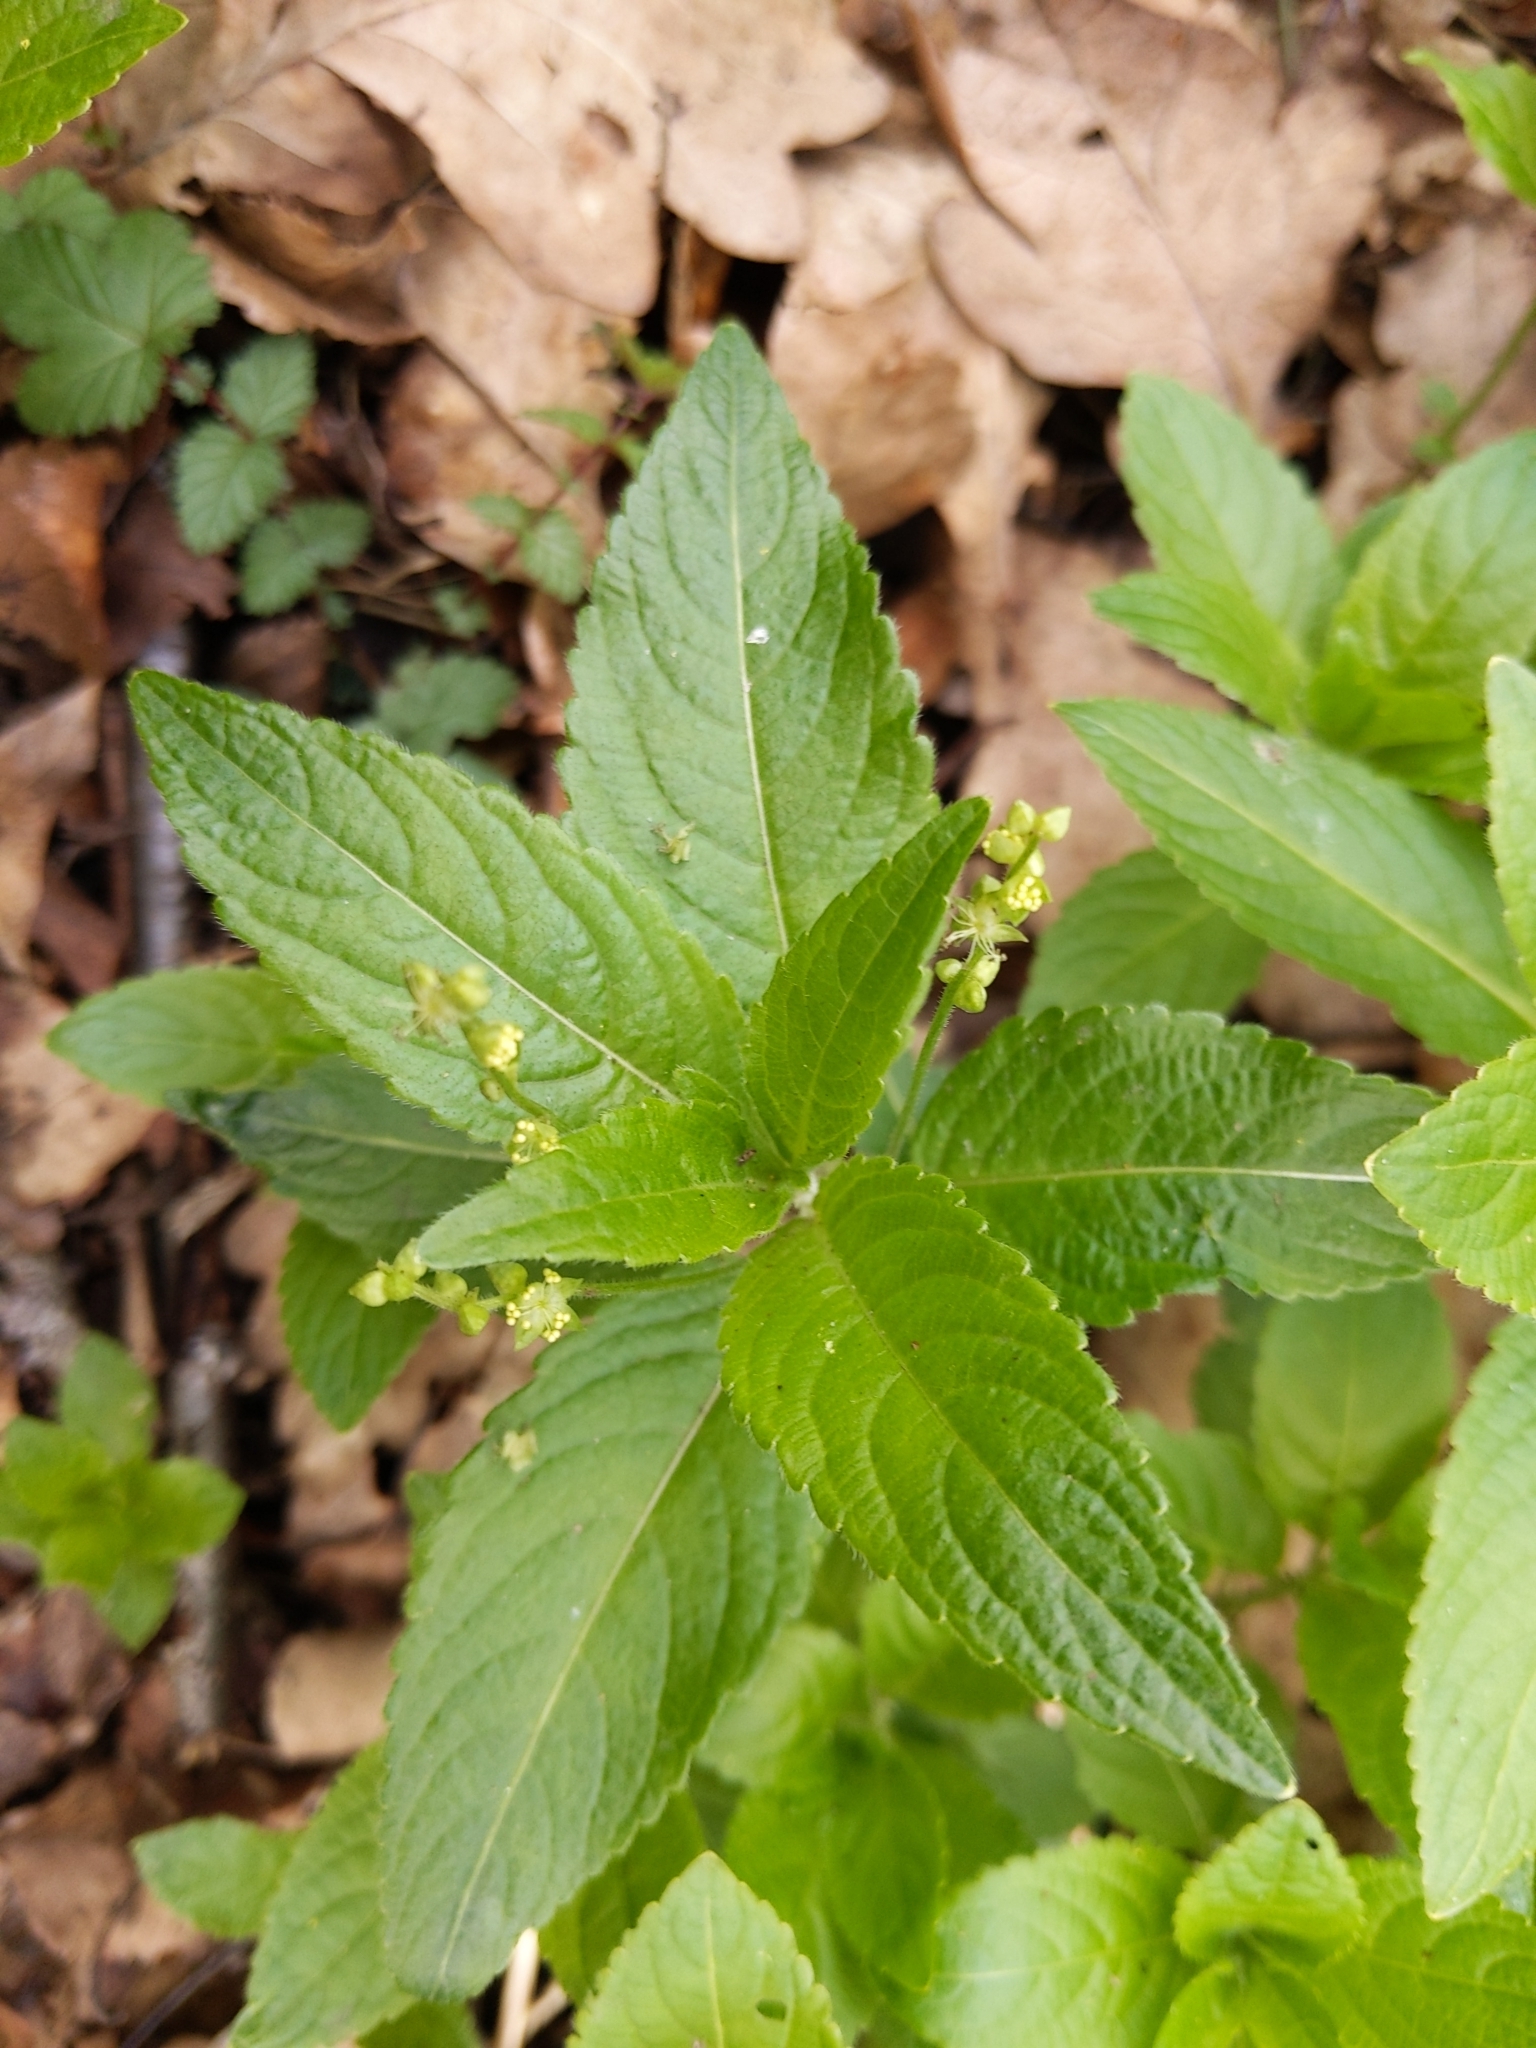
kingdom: Plantae
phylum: Tracheophyta
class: Magnoliopsida
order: Malpighiales
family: Euphorbiaceae
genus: Mercurialis
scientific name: Mercurialis perennis
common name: Dog mercury
